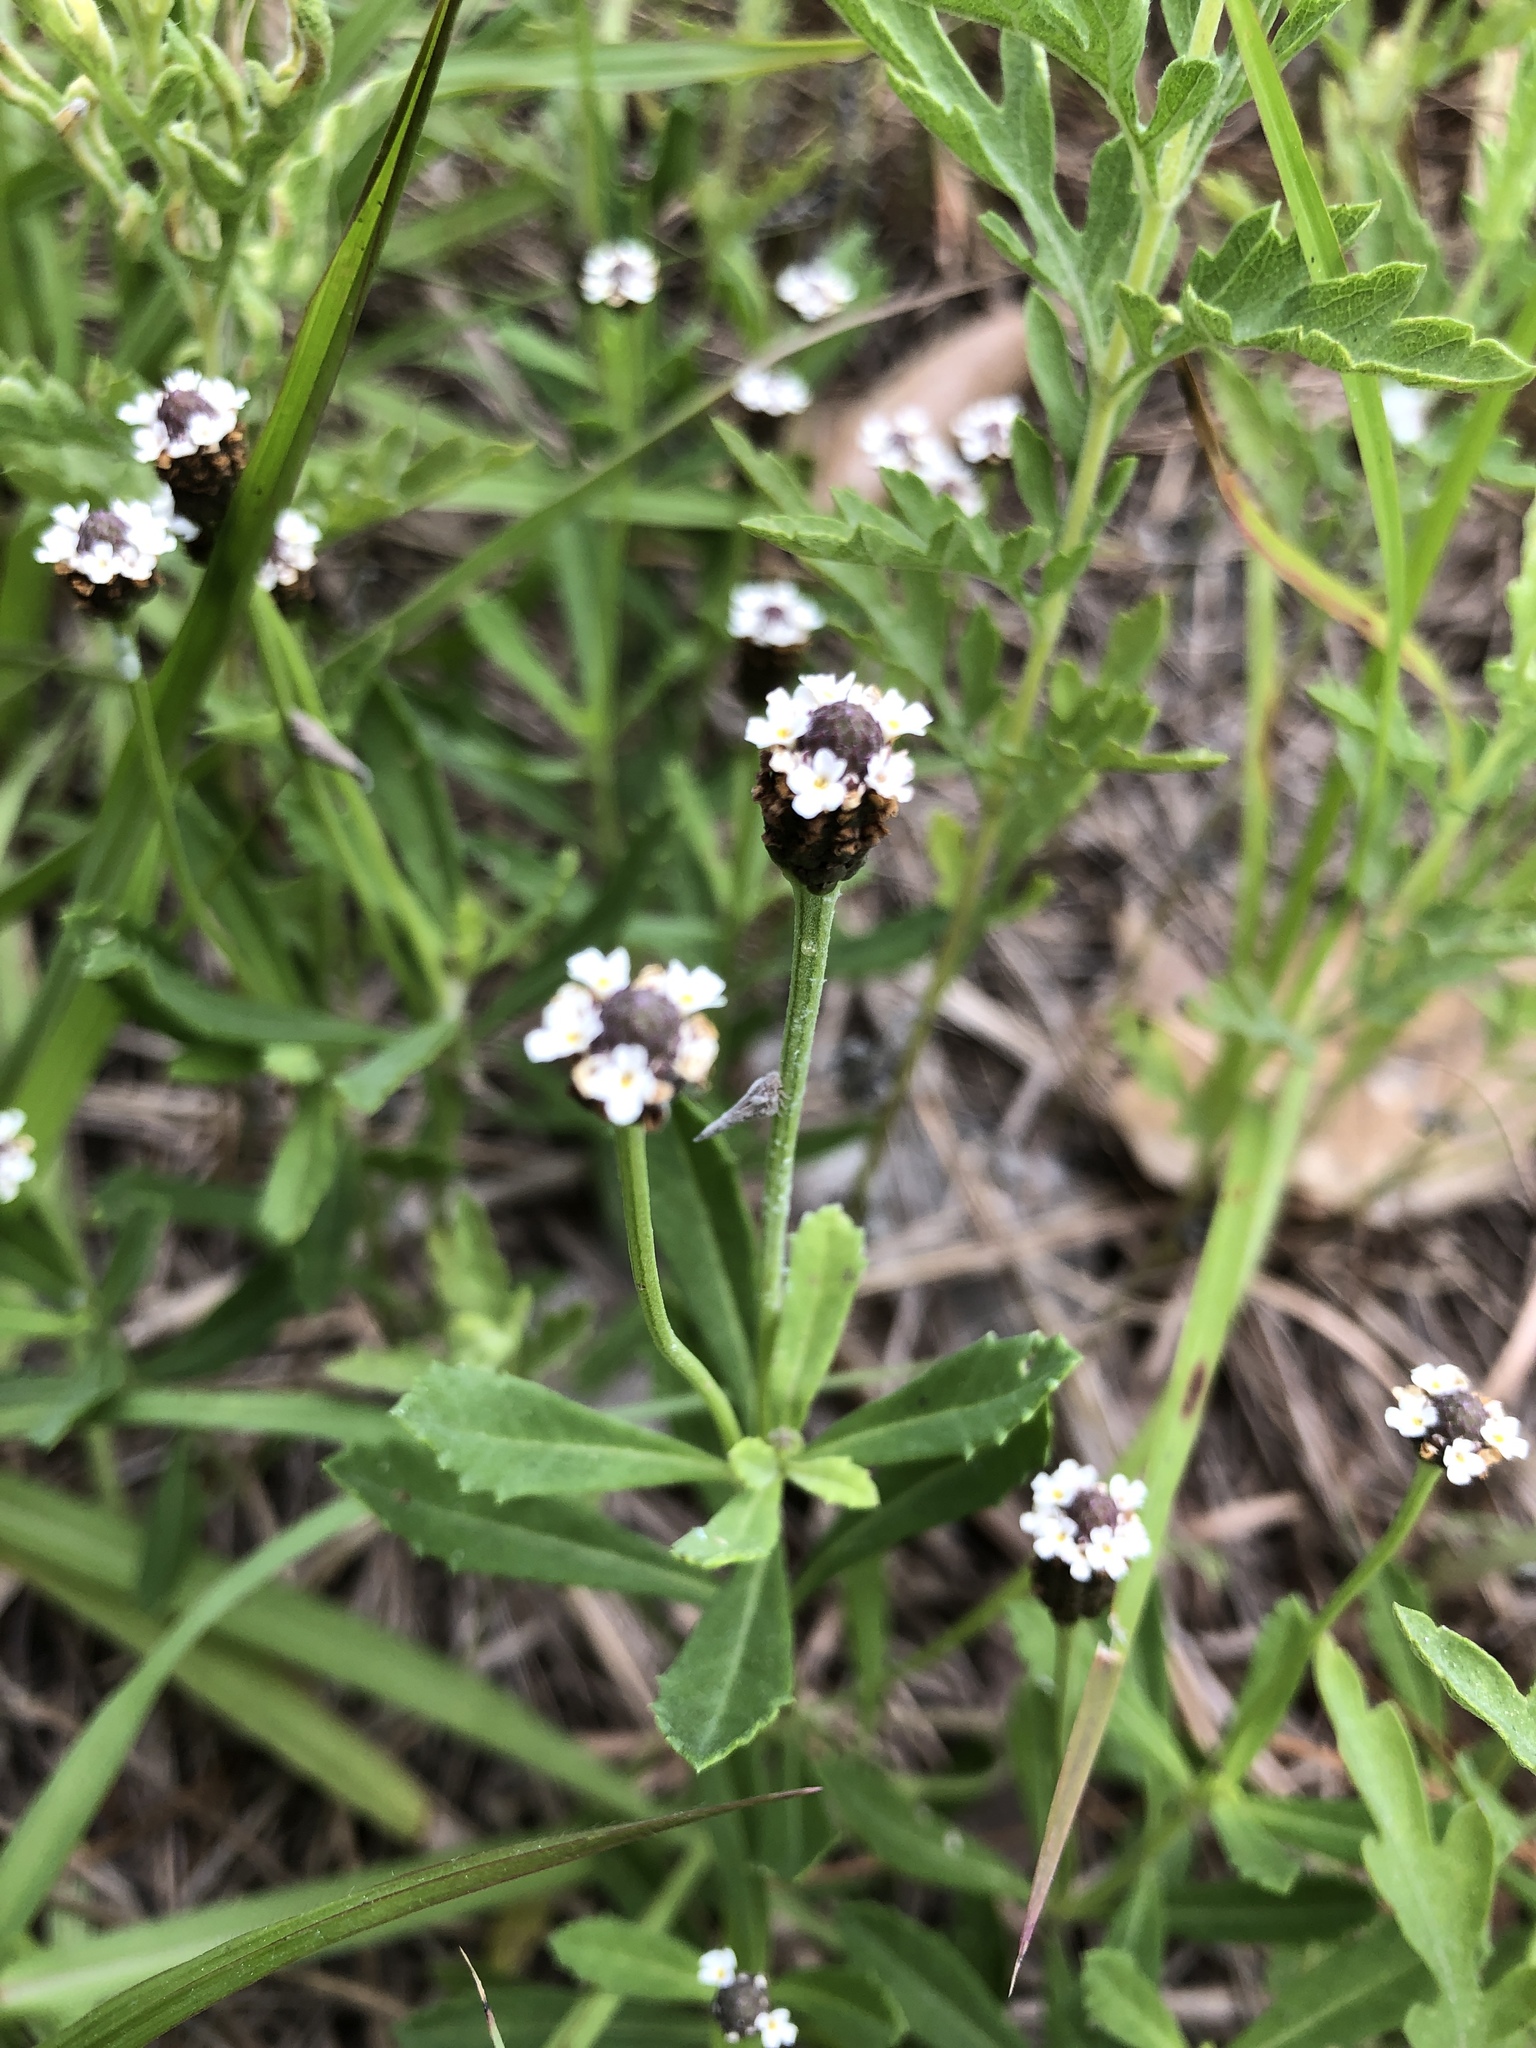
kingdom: Plantae
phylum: Tracheophyta
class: Magnoliopsida
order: Lamiales
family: Verbenaceae
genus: Phyla
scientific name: Phyla nodiflora
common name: Frogfruit
